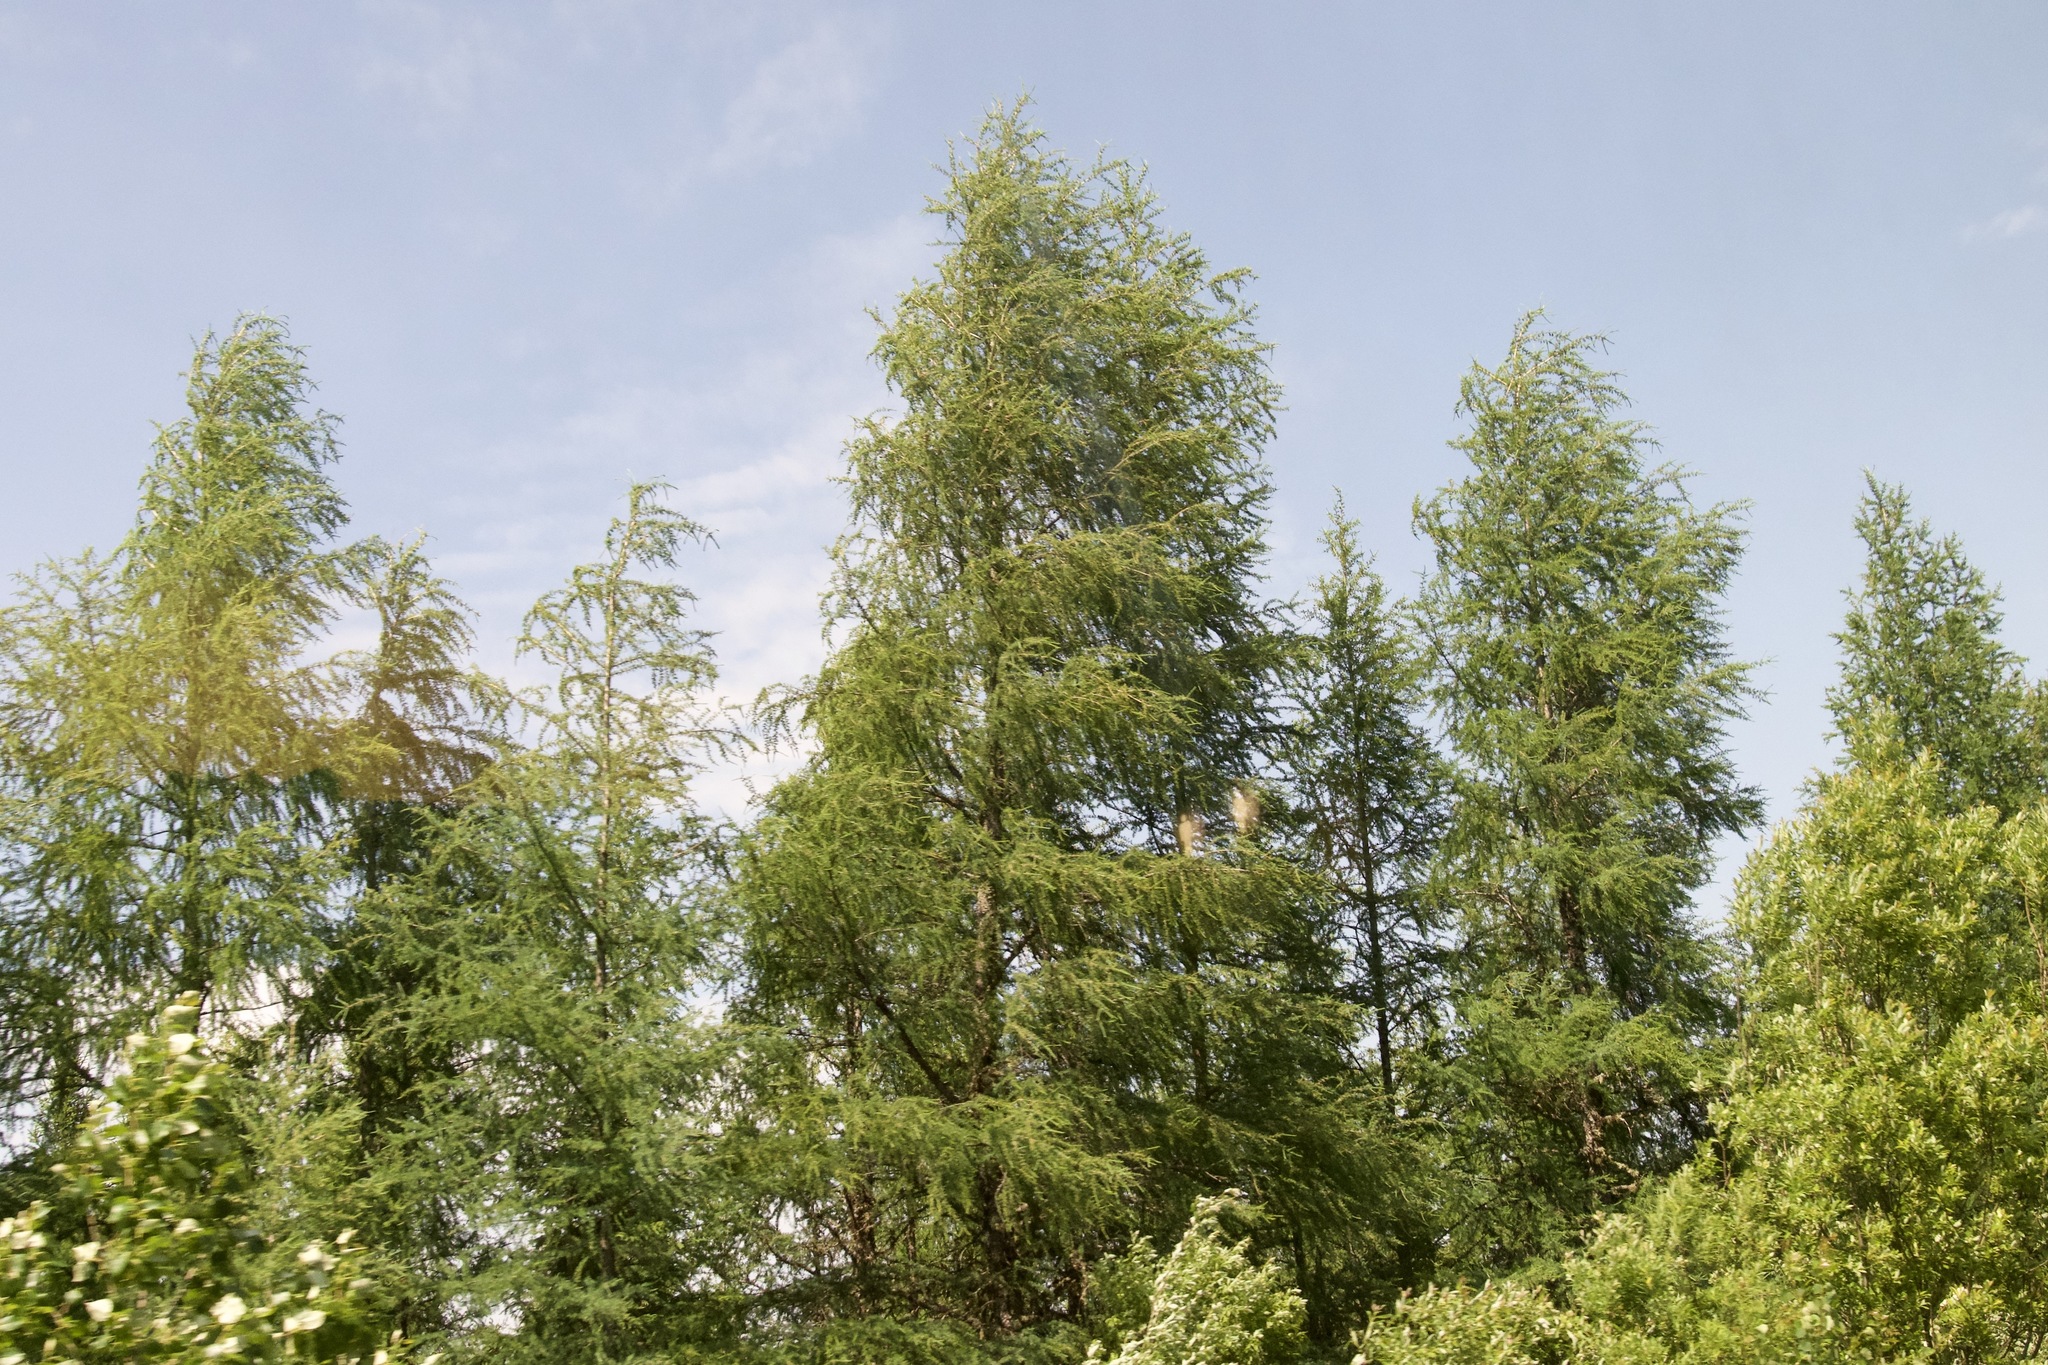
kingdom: Plantae
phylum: Tracheophyta
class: Pinopsida
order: Pinales
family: Pinaceae
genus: Larix
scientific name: Larix laricina
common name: American larch
